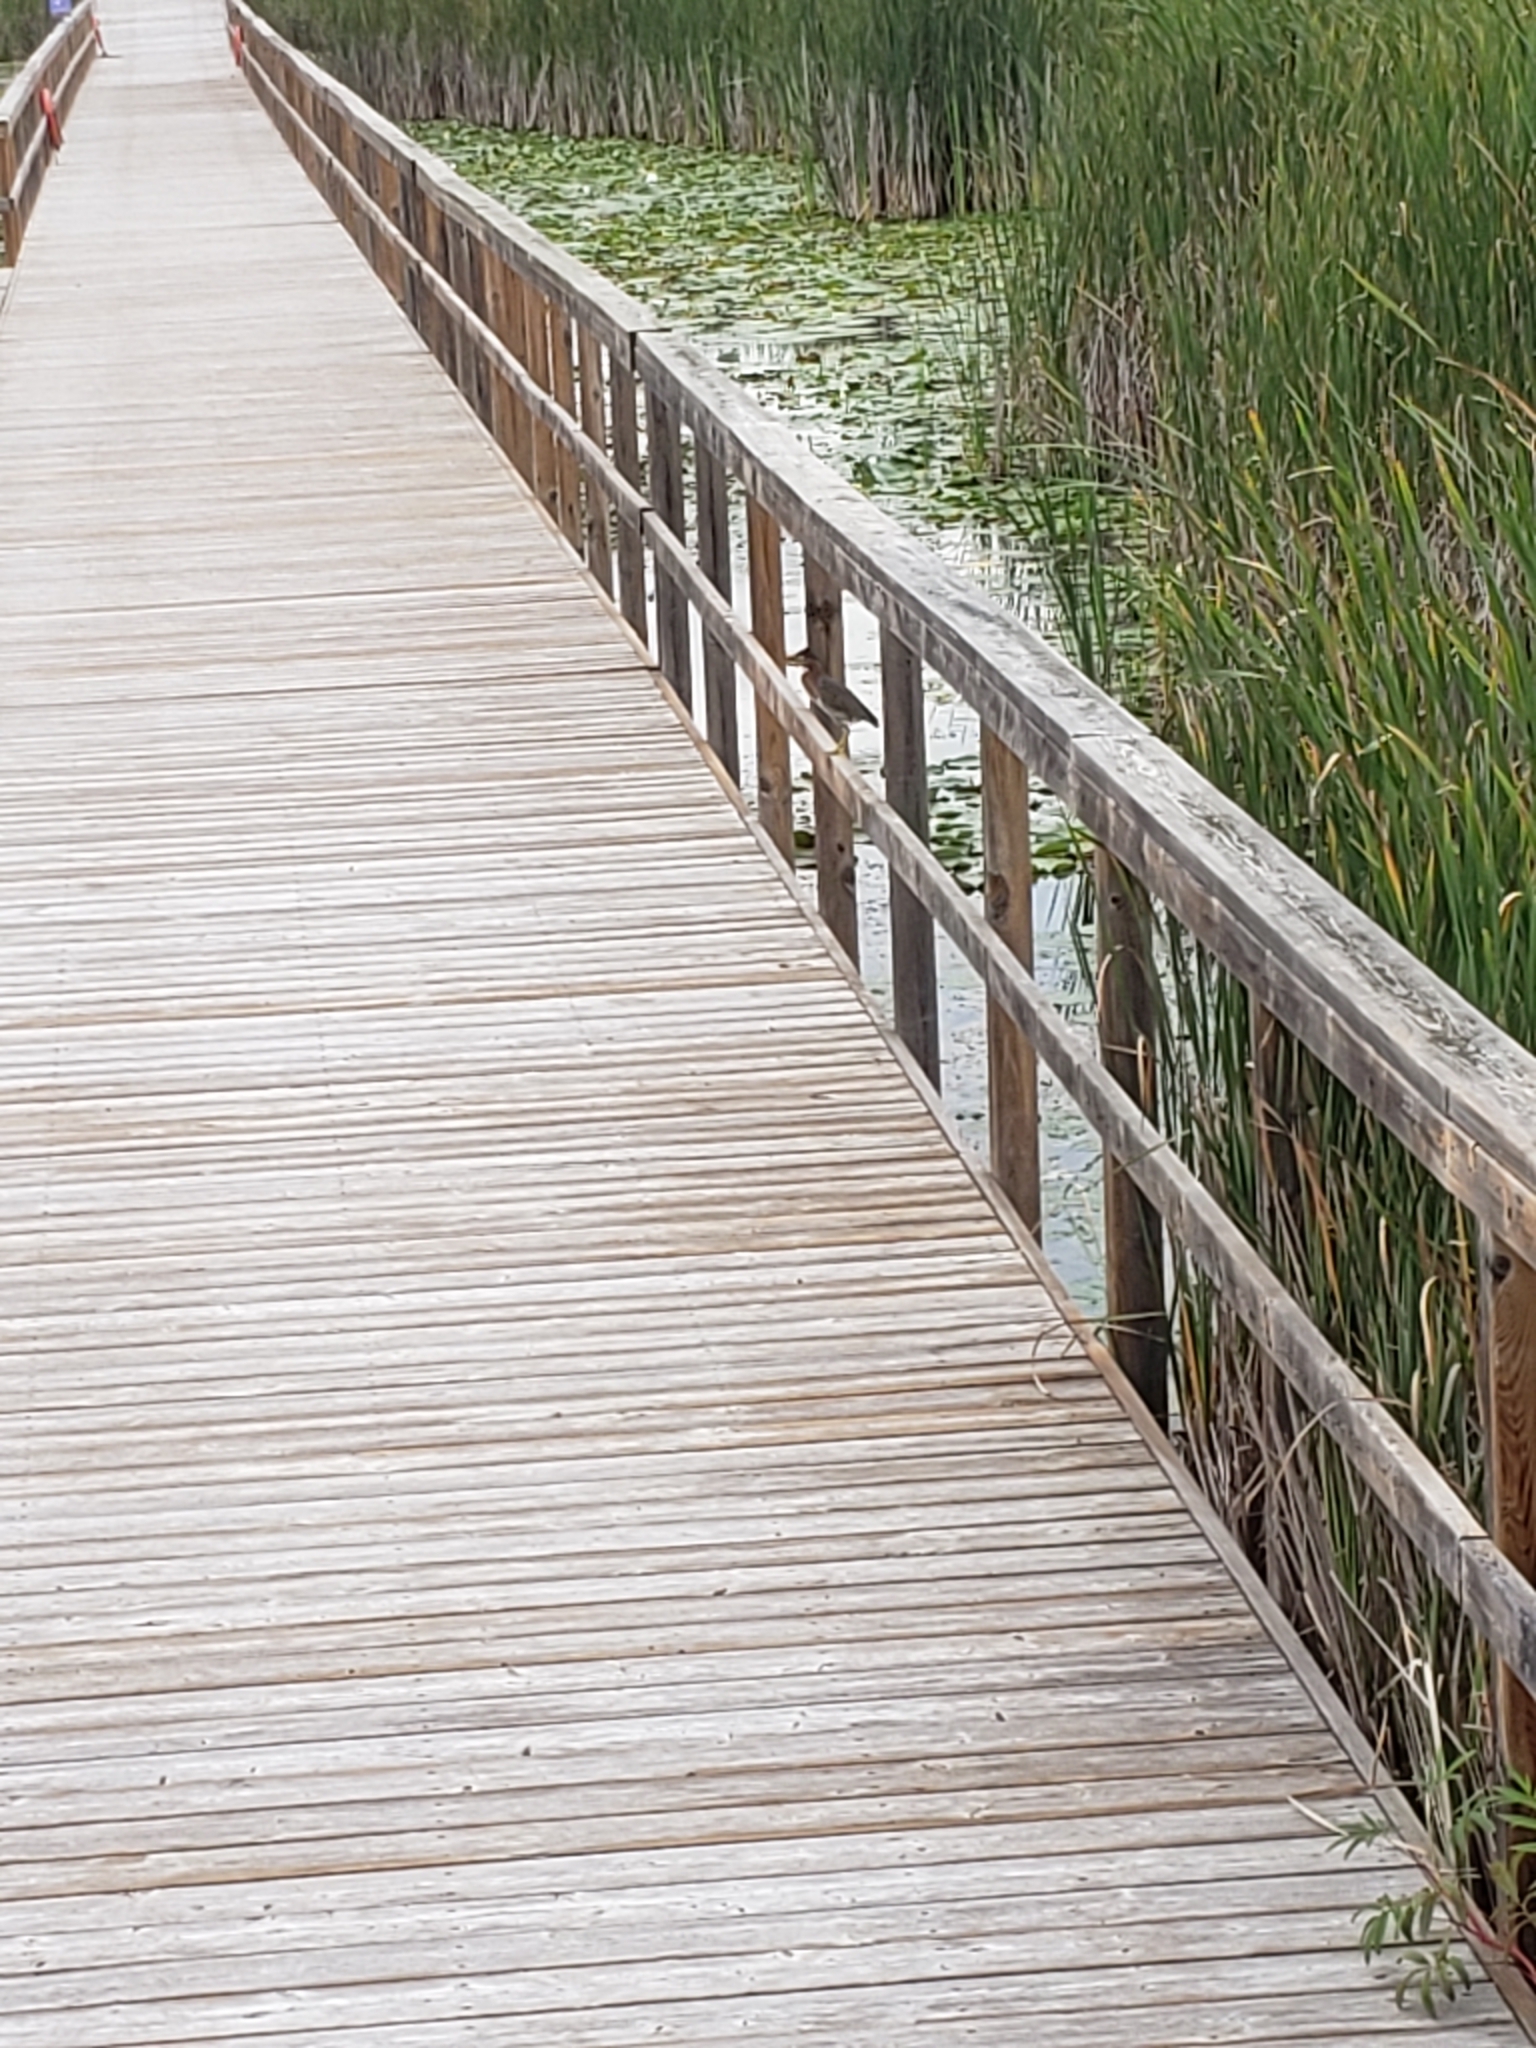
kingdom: Animalia
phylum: Chordata
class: Aves
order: Pelecaniformes
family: Ardeidae
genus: Butorides
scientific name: Butorides virescens
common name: Green heron
